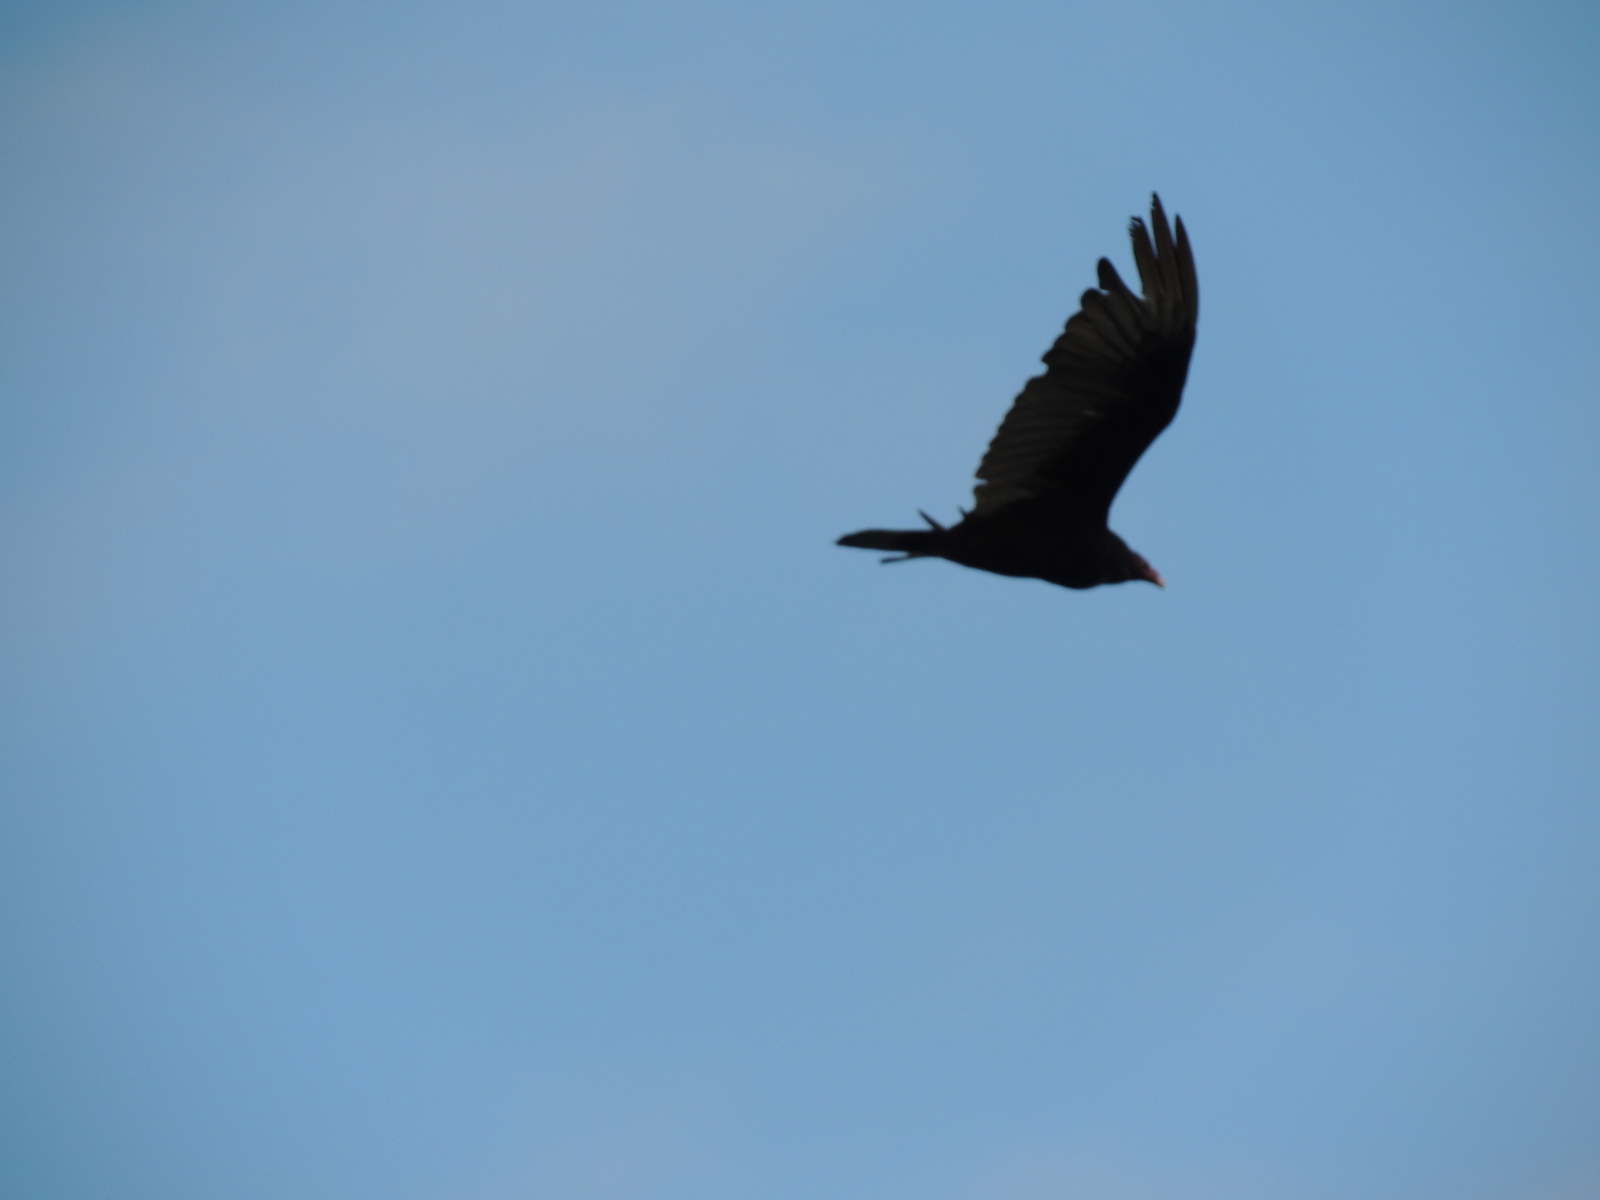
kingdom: Animalia
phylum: Chordata
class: Aves
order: Accipitriformes
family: Cathartidae
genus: Cathartes
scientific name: Cathartes aura
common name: Turkey vulture
